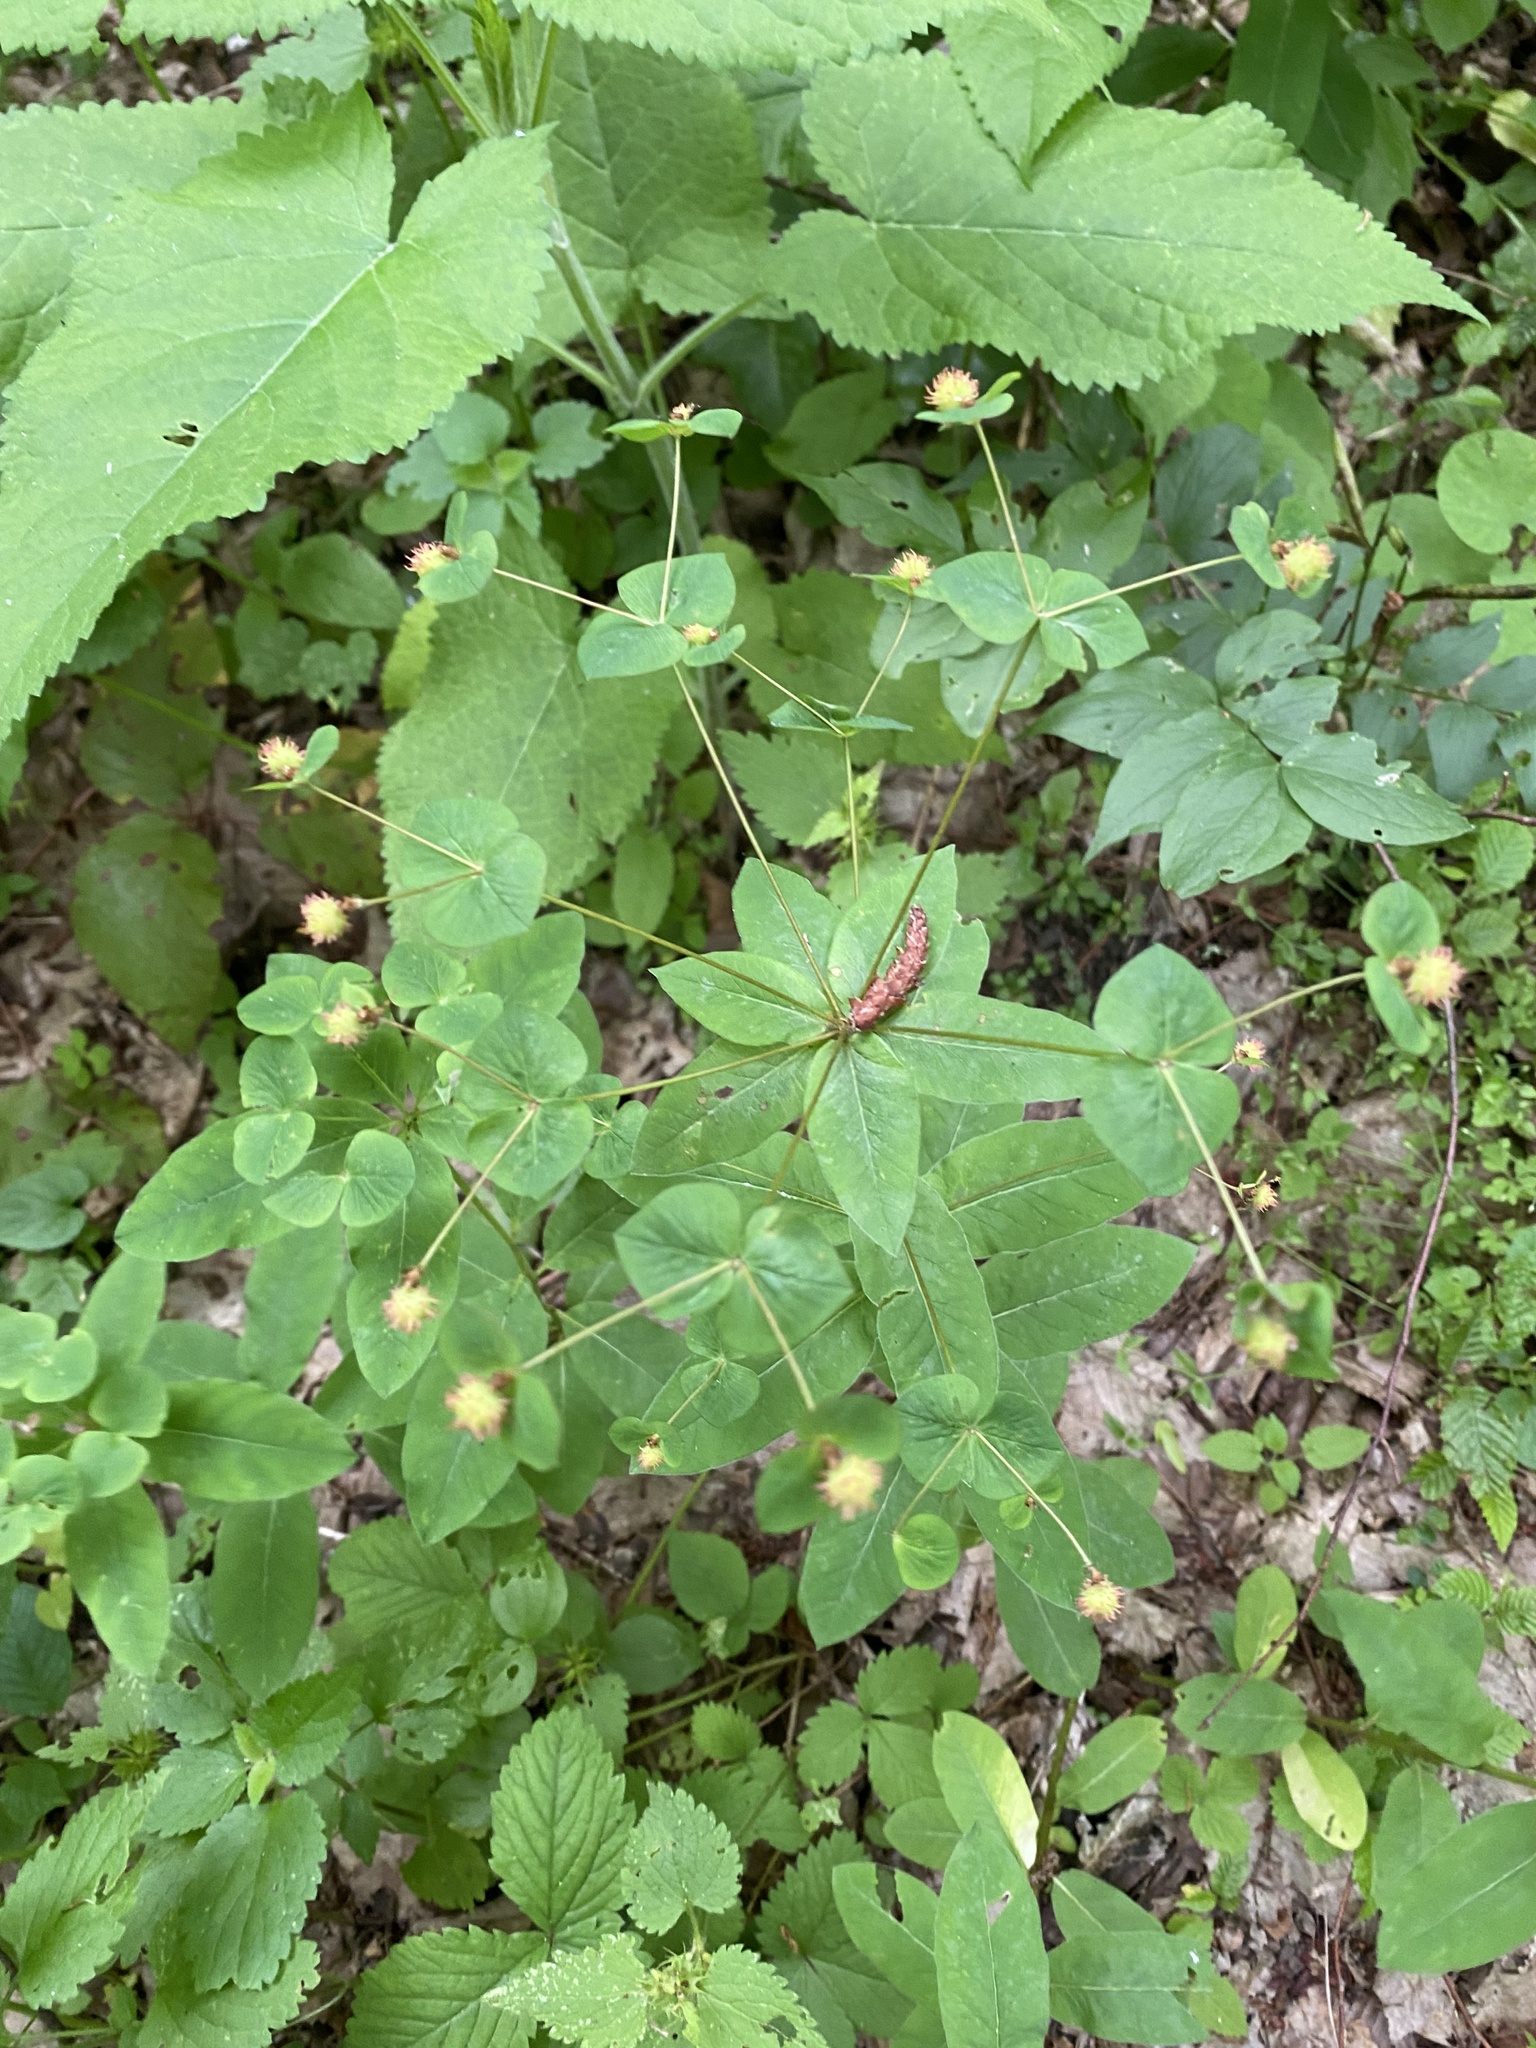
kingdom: Plantae
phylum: Tracheophyta
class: Magnoliopsida
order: Malpighiales
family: Euphorbiaceae
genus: Euphorbia
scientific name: Euphorbia squamosa
